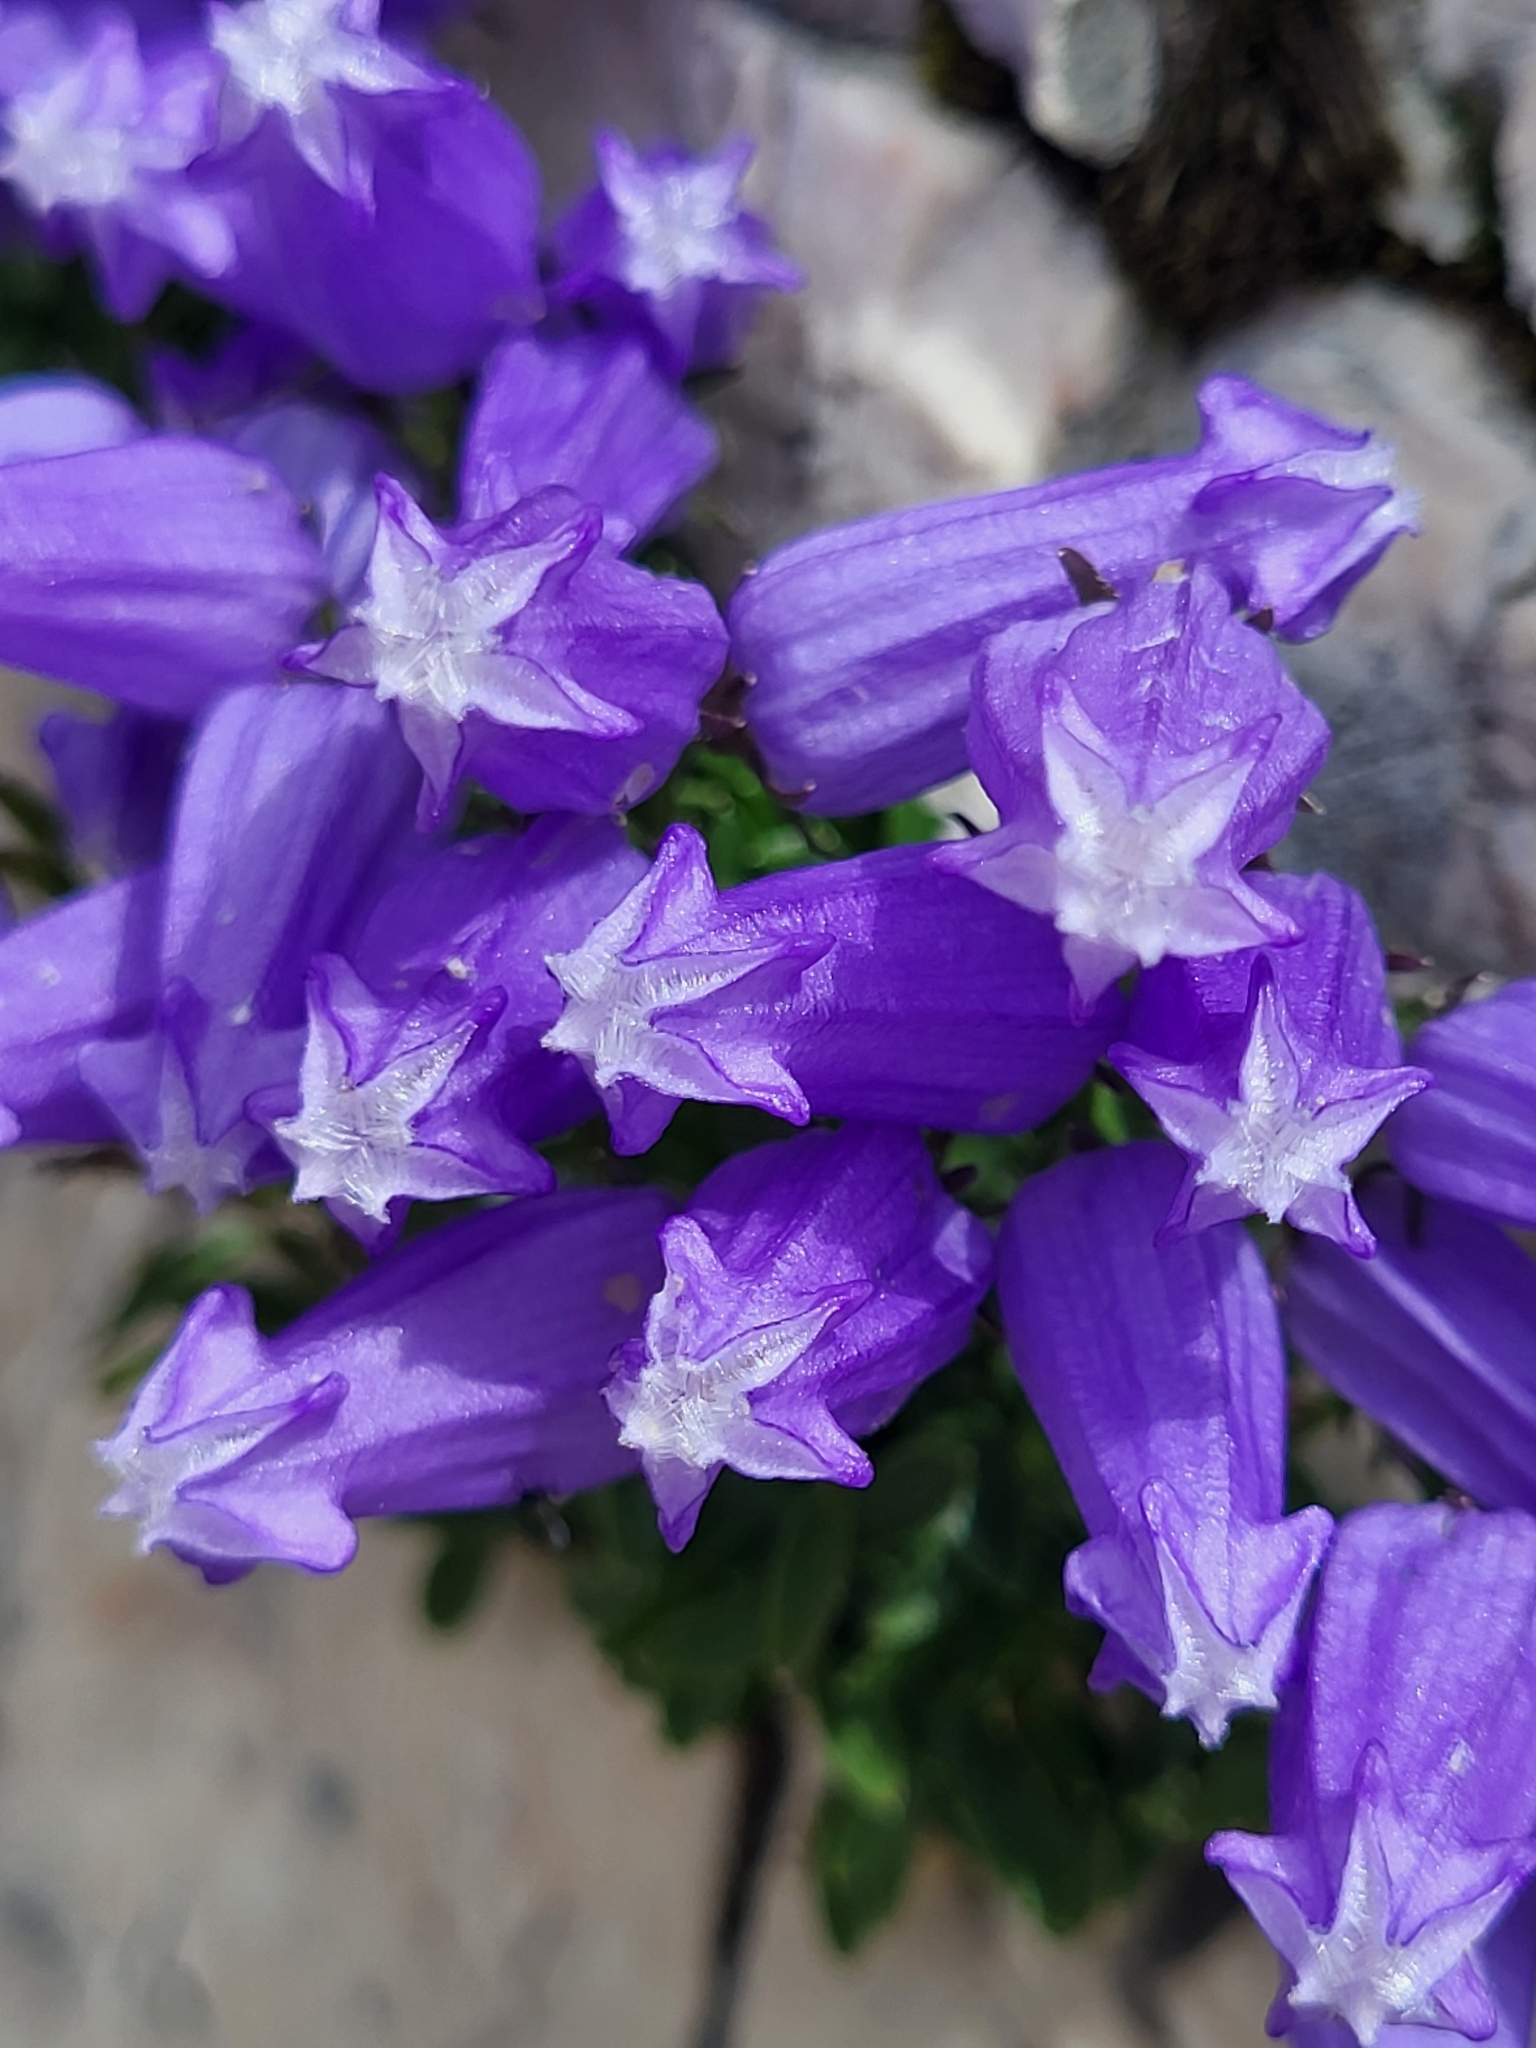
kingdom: Plantae
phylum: Tracheophyta
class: Magnoliopsida
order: Asterales
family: Campanulaceae
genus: Favratia
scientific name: Favratia zoysii
